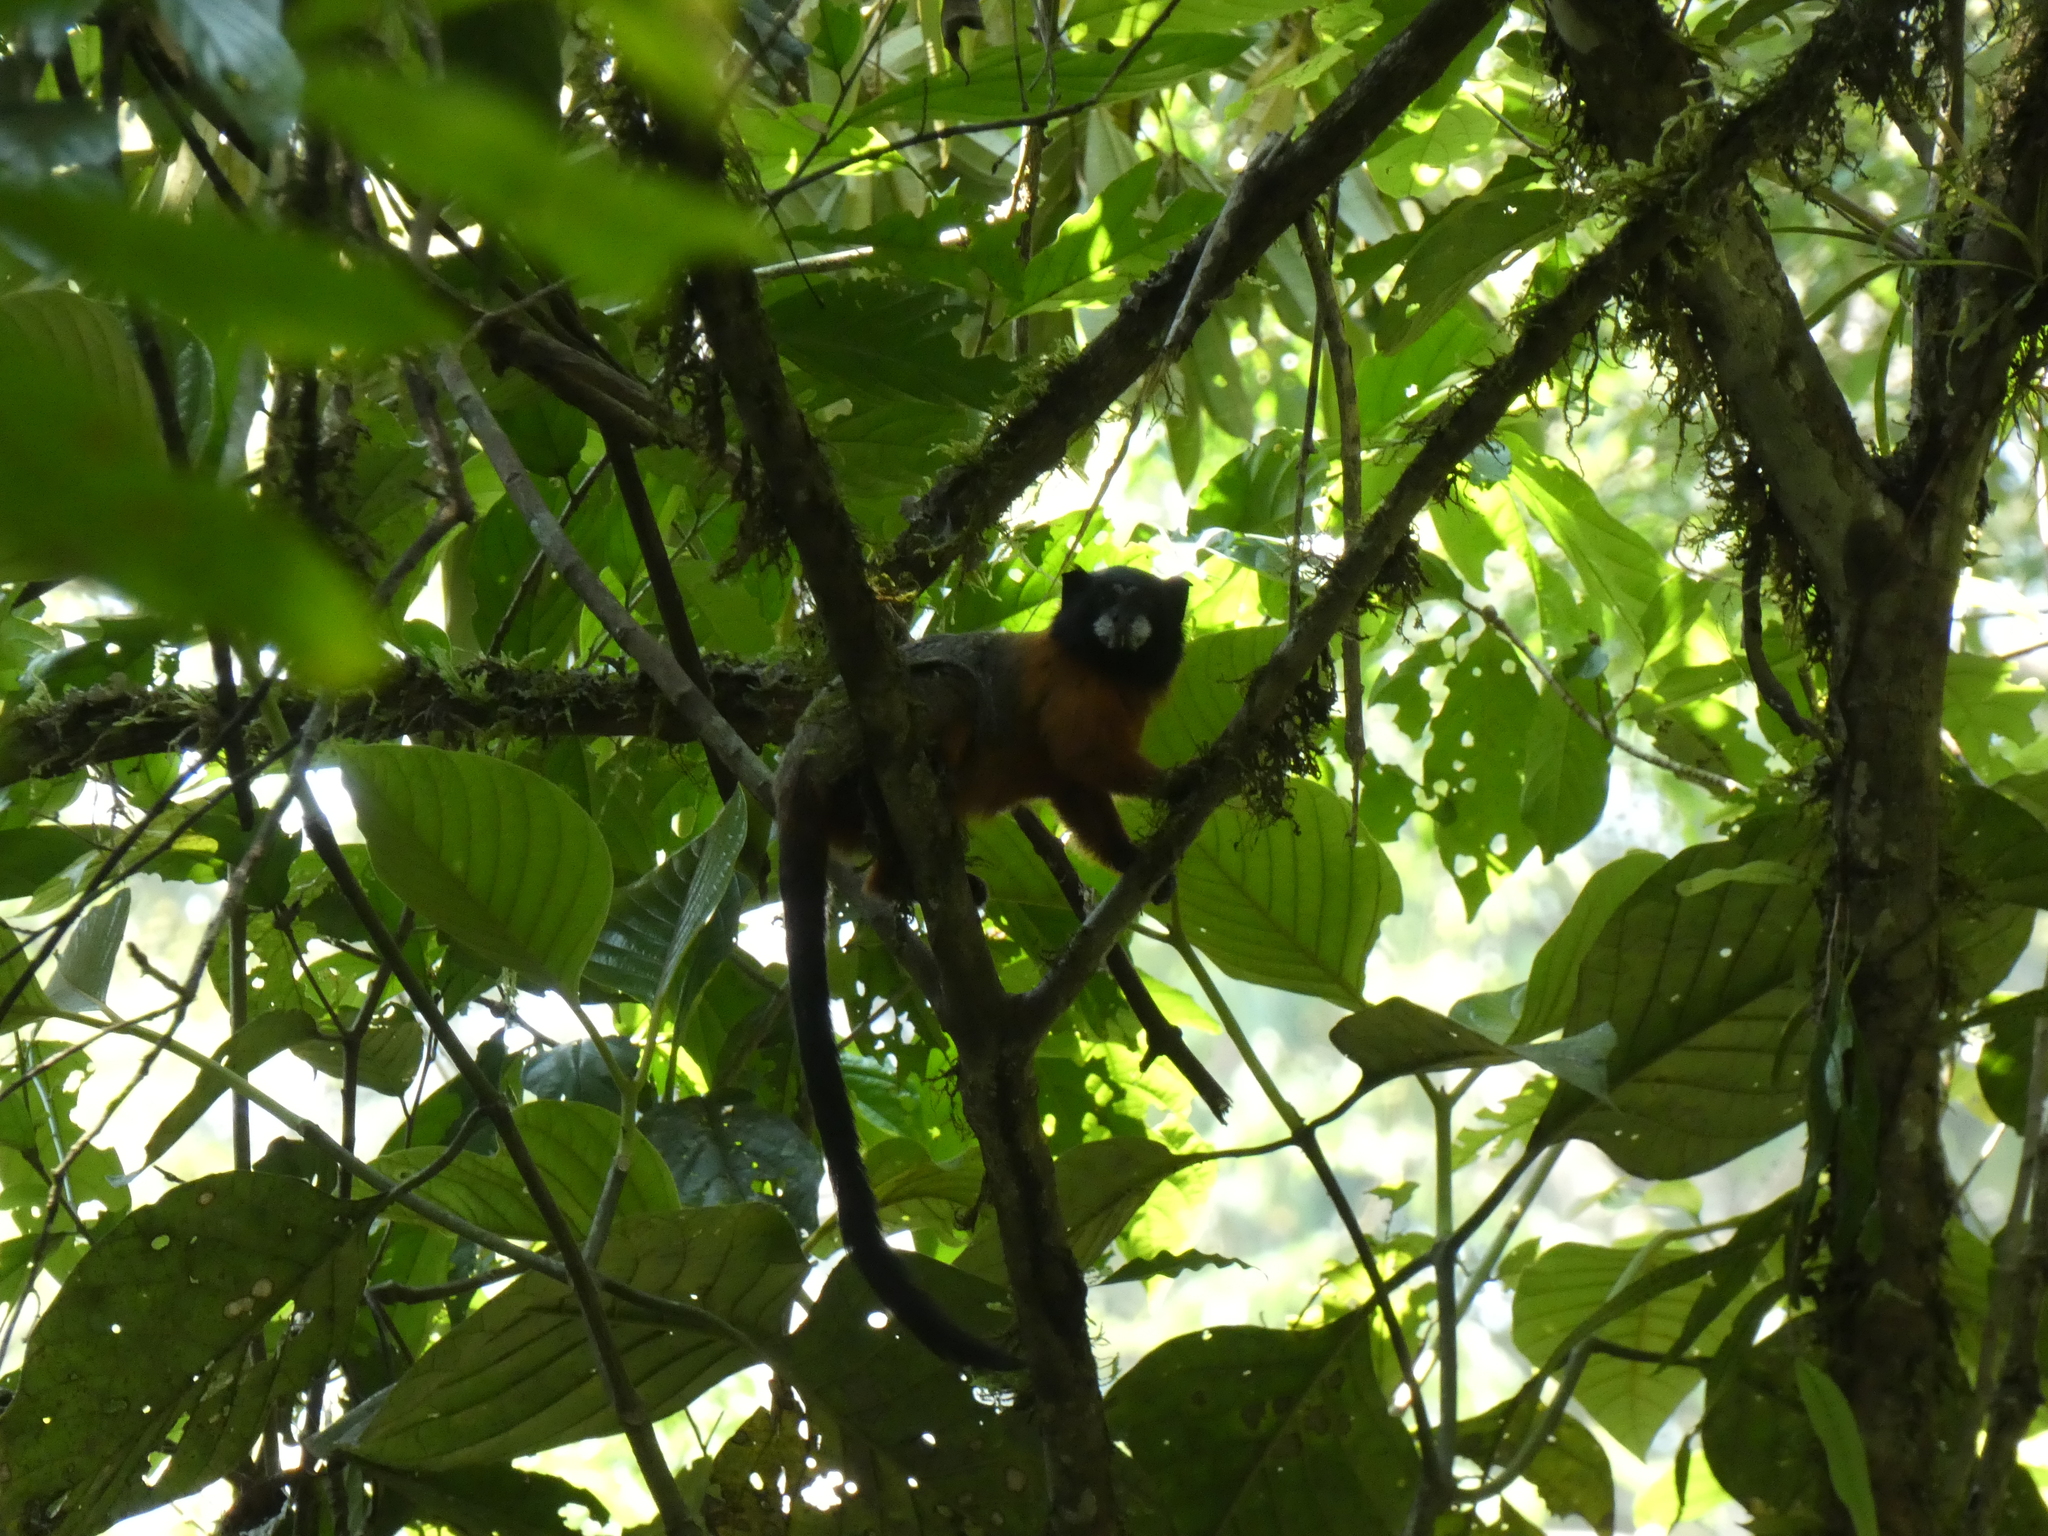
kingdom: Animalia
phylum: Chordata
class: Mammalia
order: Primates
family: Callitrichidae
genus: Leontocebus
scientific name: Leontocebus tripartitus
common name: Golden-mantled saddle-back tamarin
